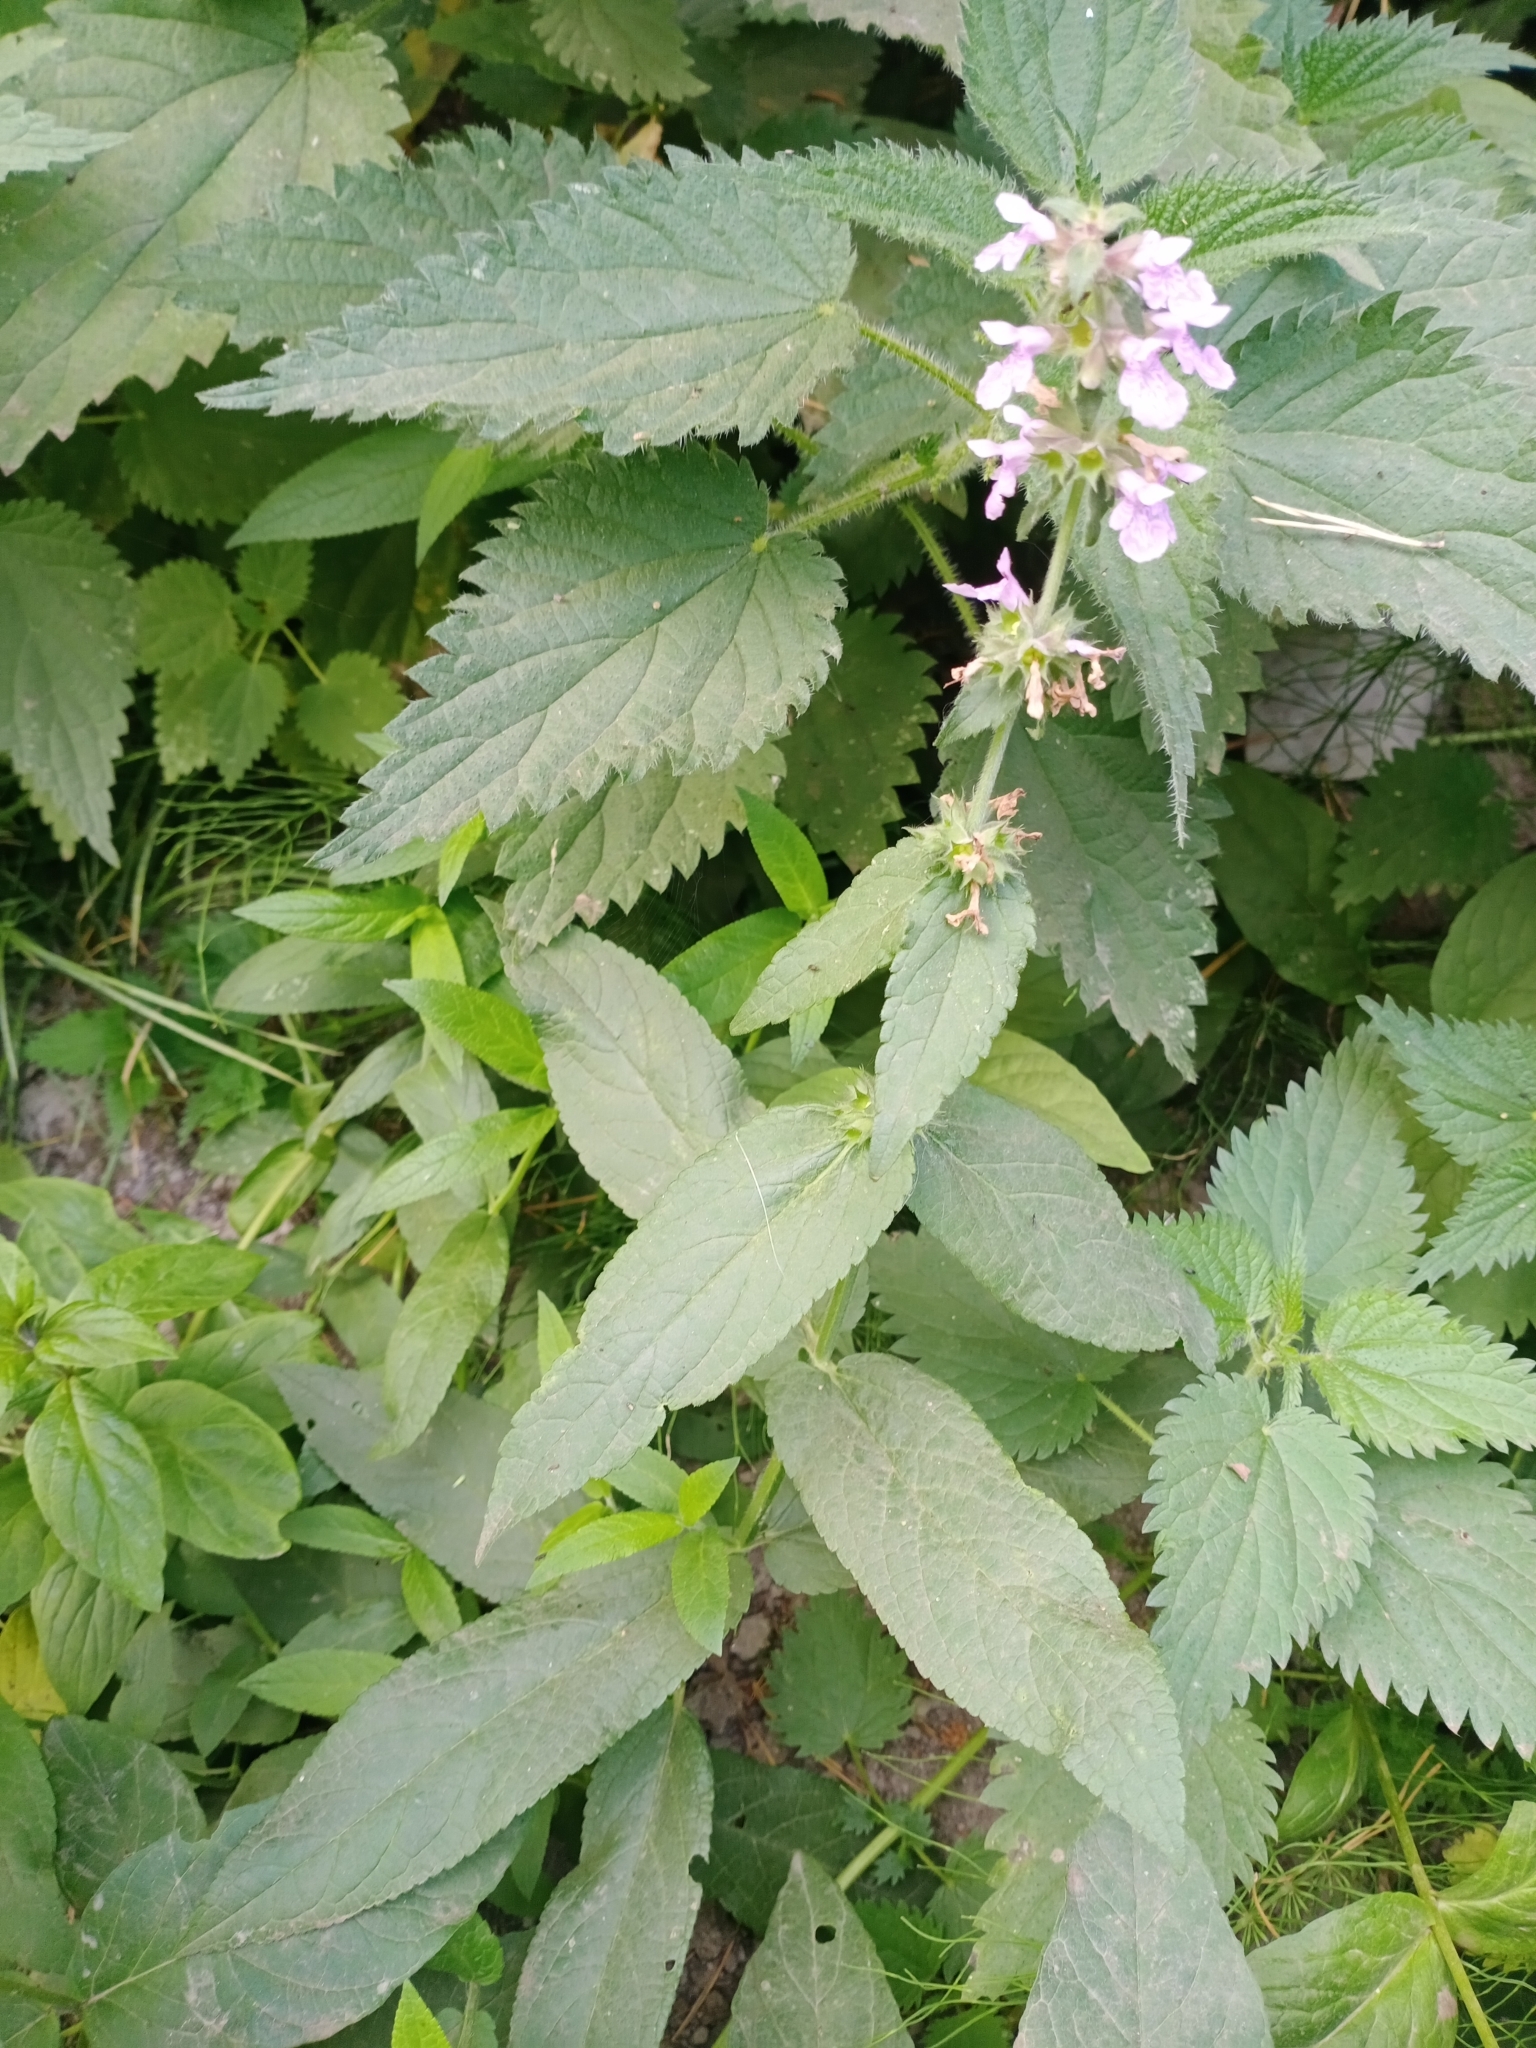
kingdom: Plantae
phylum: Tracheophyta
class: Magnoliopsida
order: Lamiales
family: Lamiaceae
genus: Stachys
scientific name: Stachys palustris
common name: Marsh woundwort
